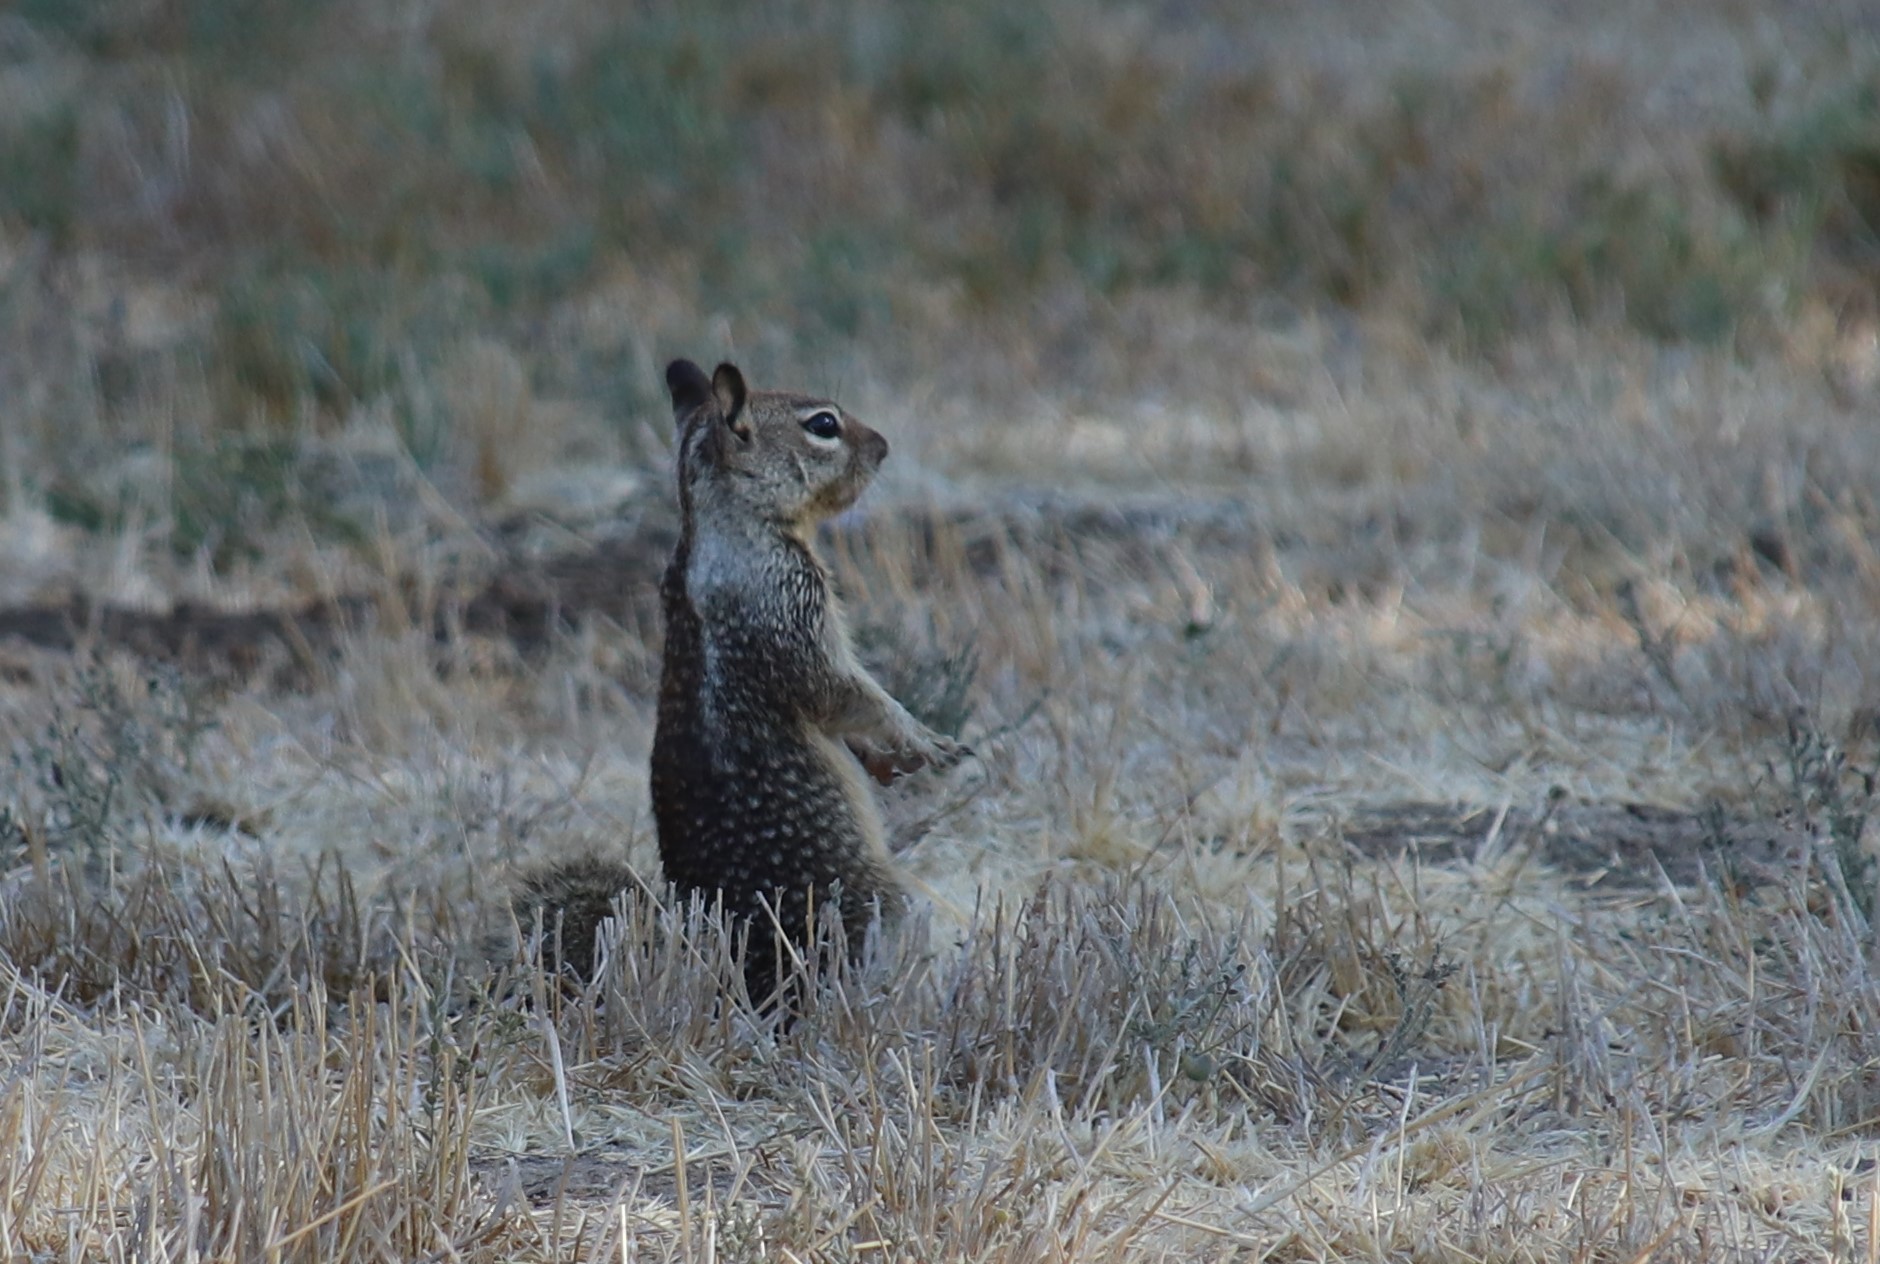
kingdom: Animalia
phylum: Chordata
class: Mammalia
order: Rodentia
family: Sciuridae
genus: Otospermophilus
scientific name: Otospermophilus beecheyi
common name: California ground squirrel
